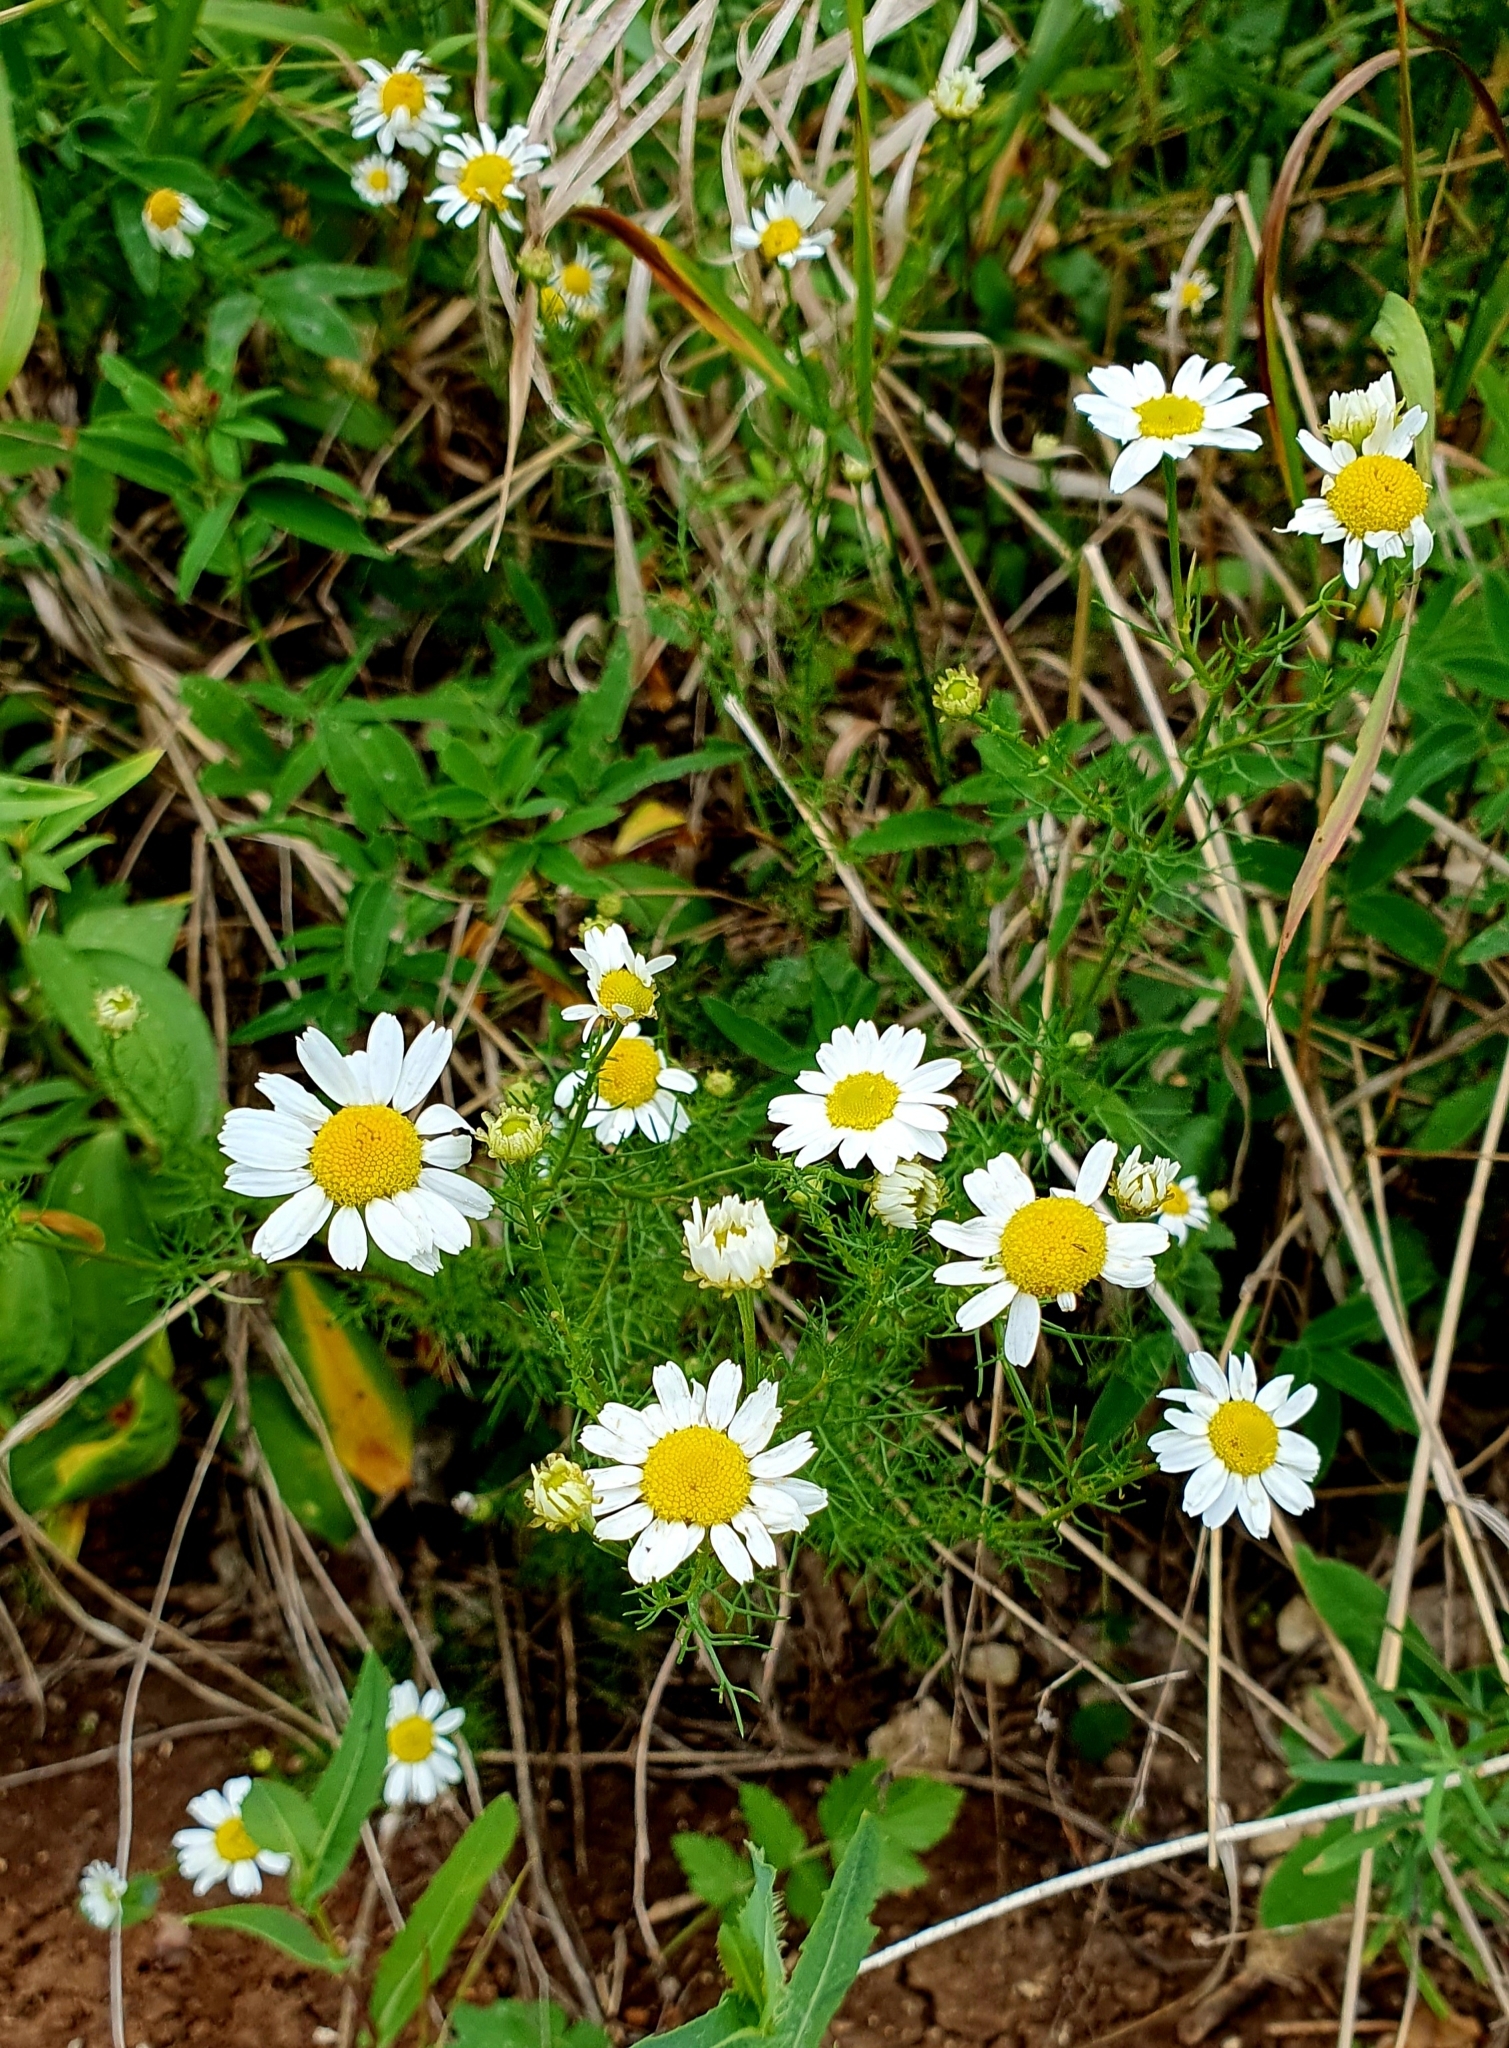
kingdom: Plantae
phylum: Tracheophyta
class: Magnoliopsida
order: Asterales
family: Asteraceae
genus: Tripleurospermum
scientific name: Tripleurospermum inodorum
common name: Scentless mayweed
